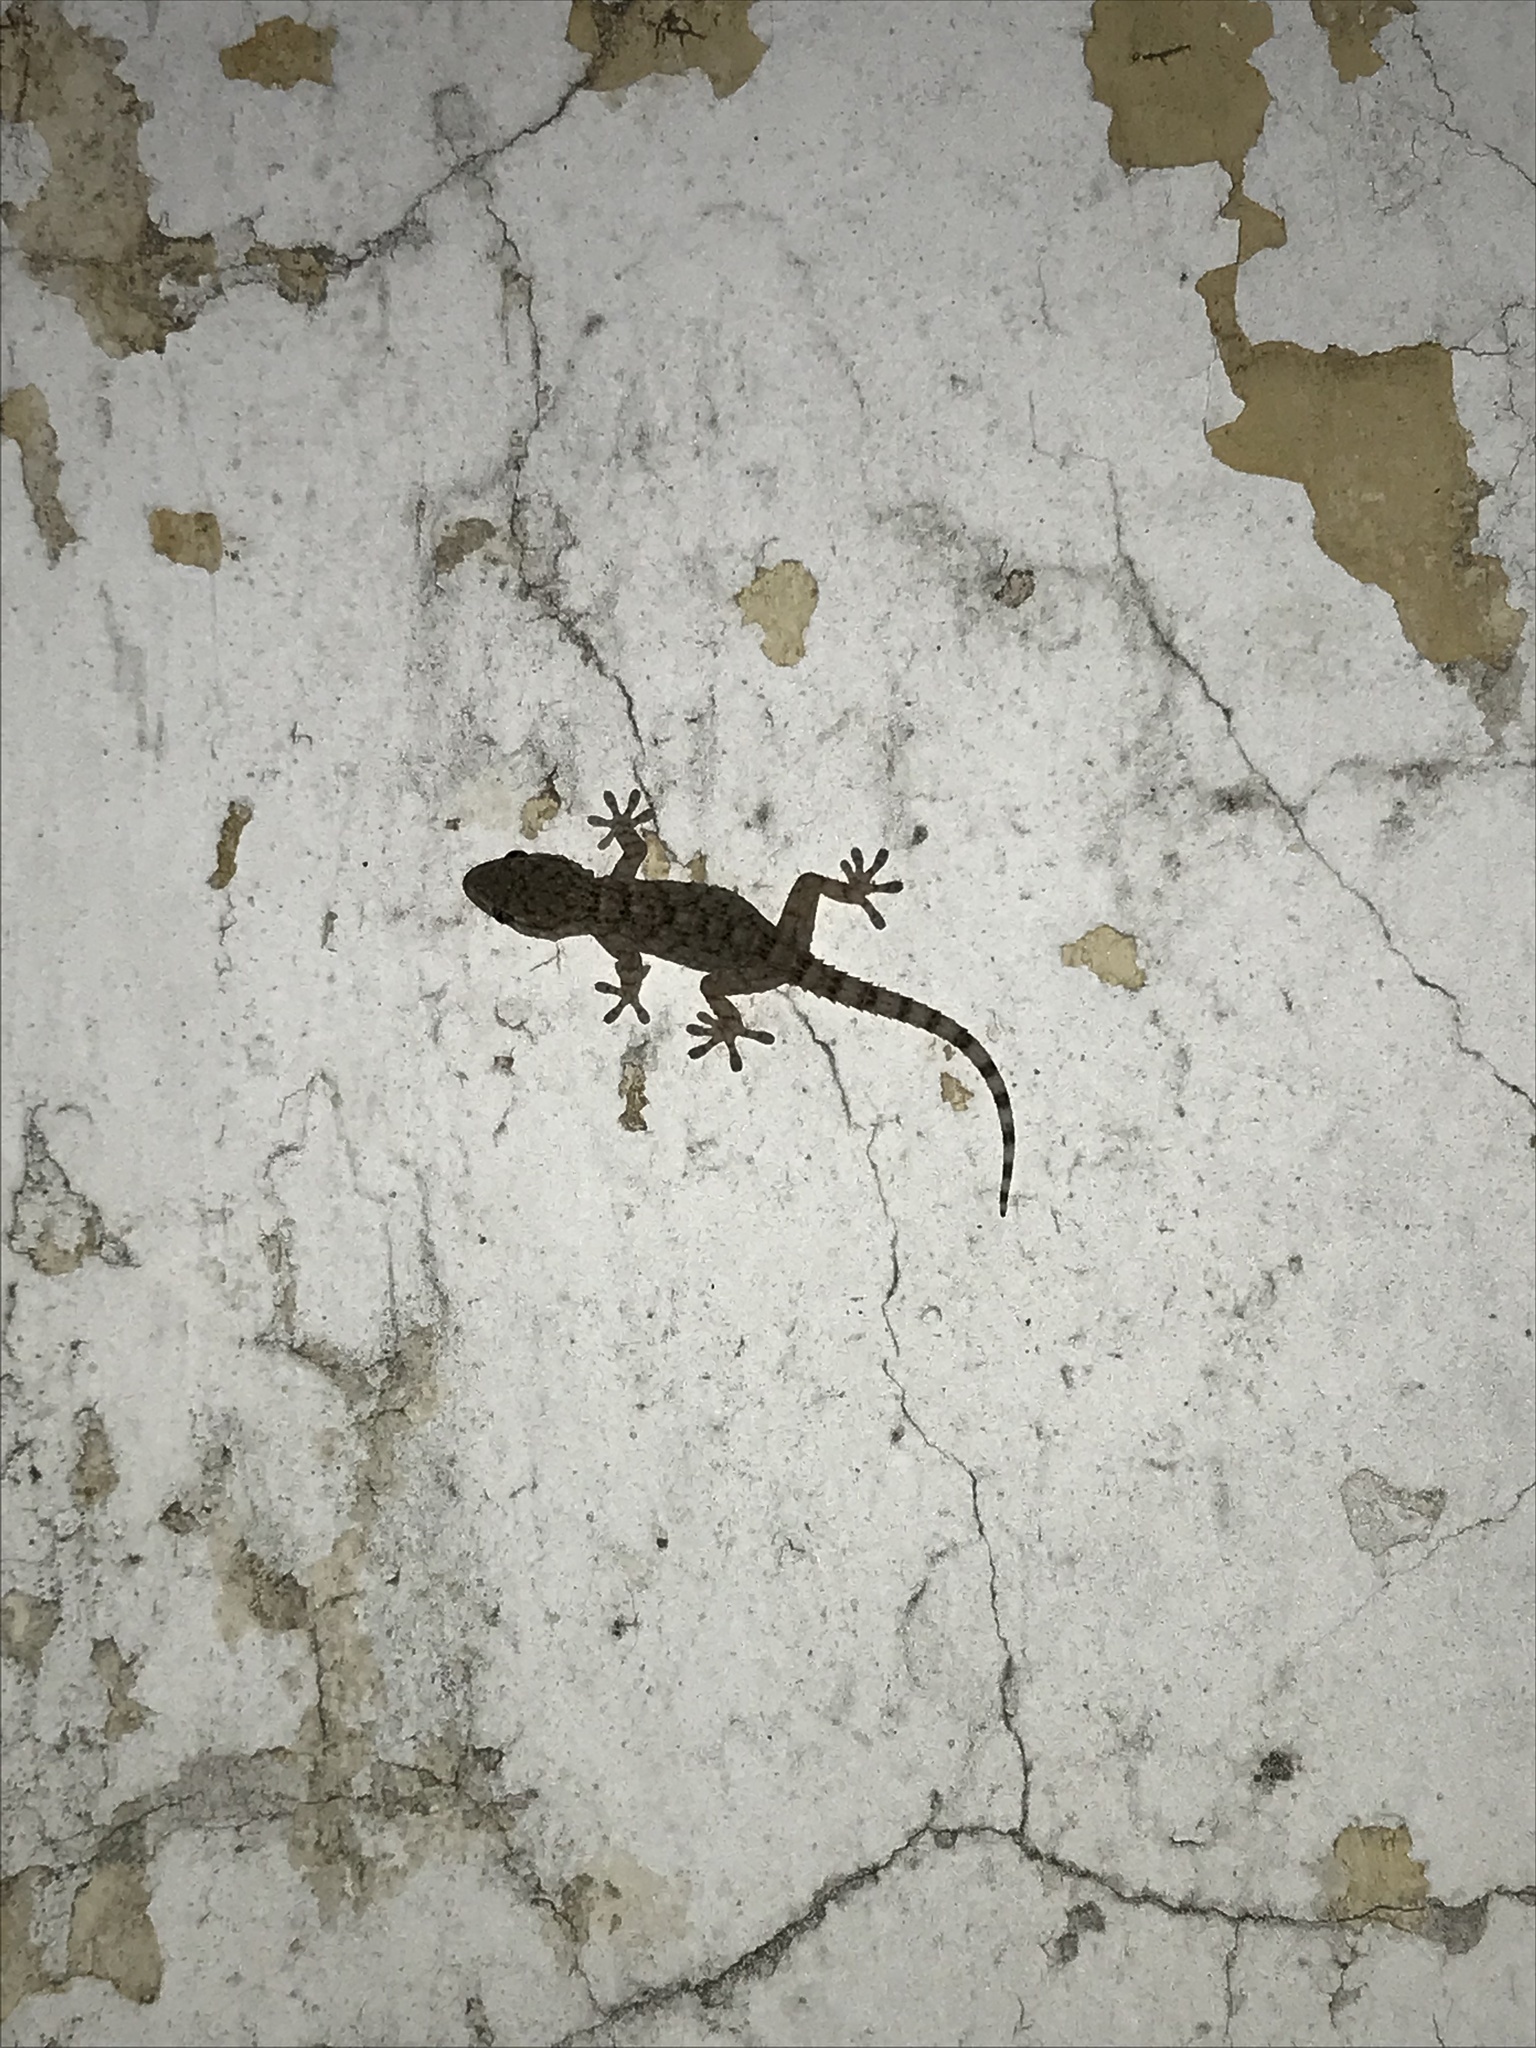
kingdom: Animalia
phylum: Chordata
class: Squamata
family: Phyllodactylidae
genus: Tarentola
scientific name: Tarentola mauritanica
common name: Moorish gecko
